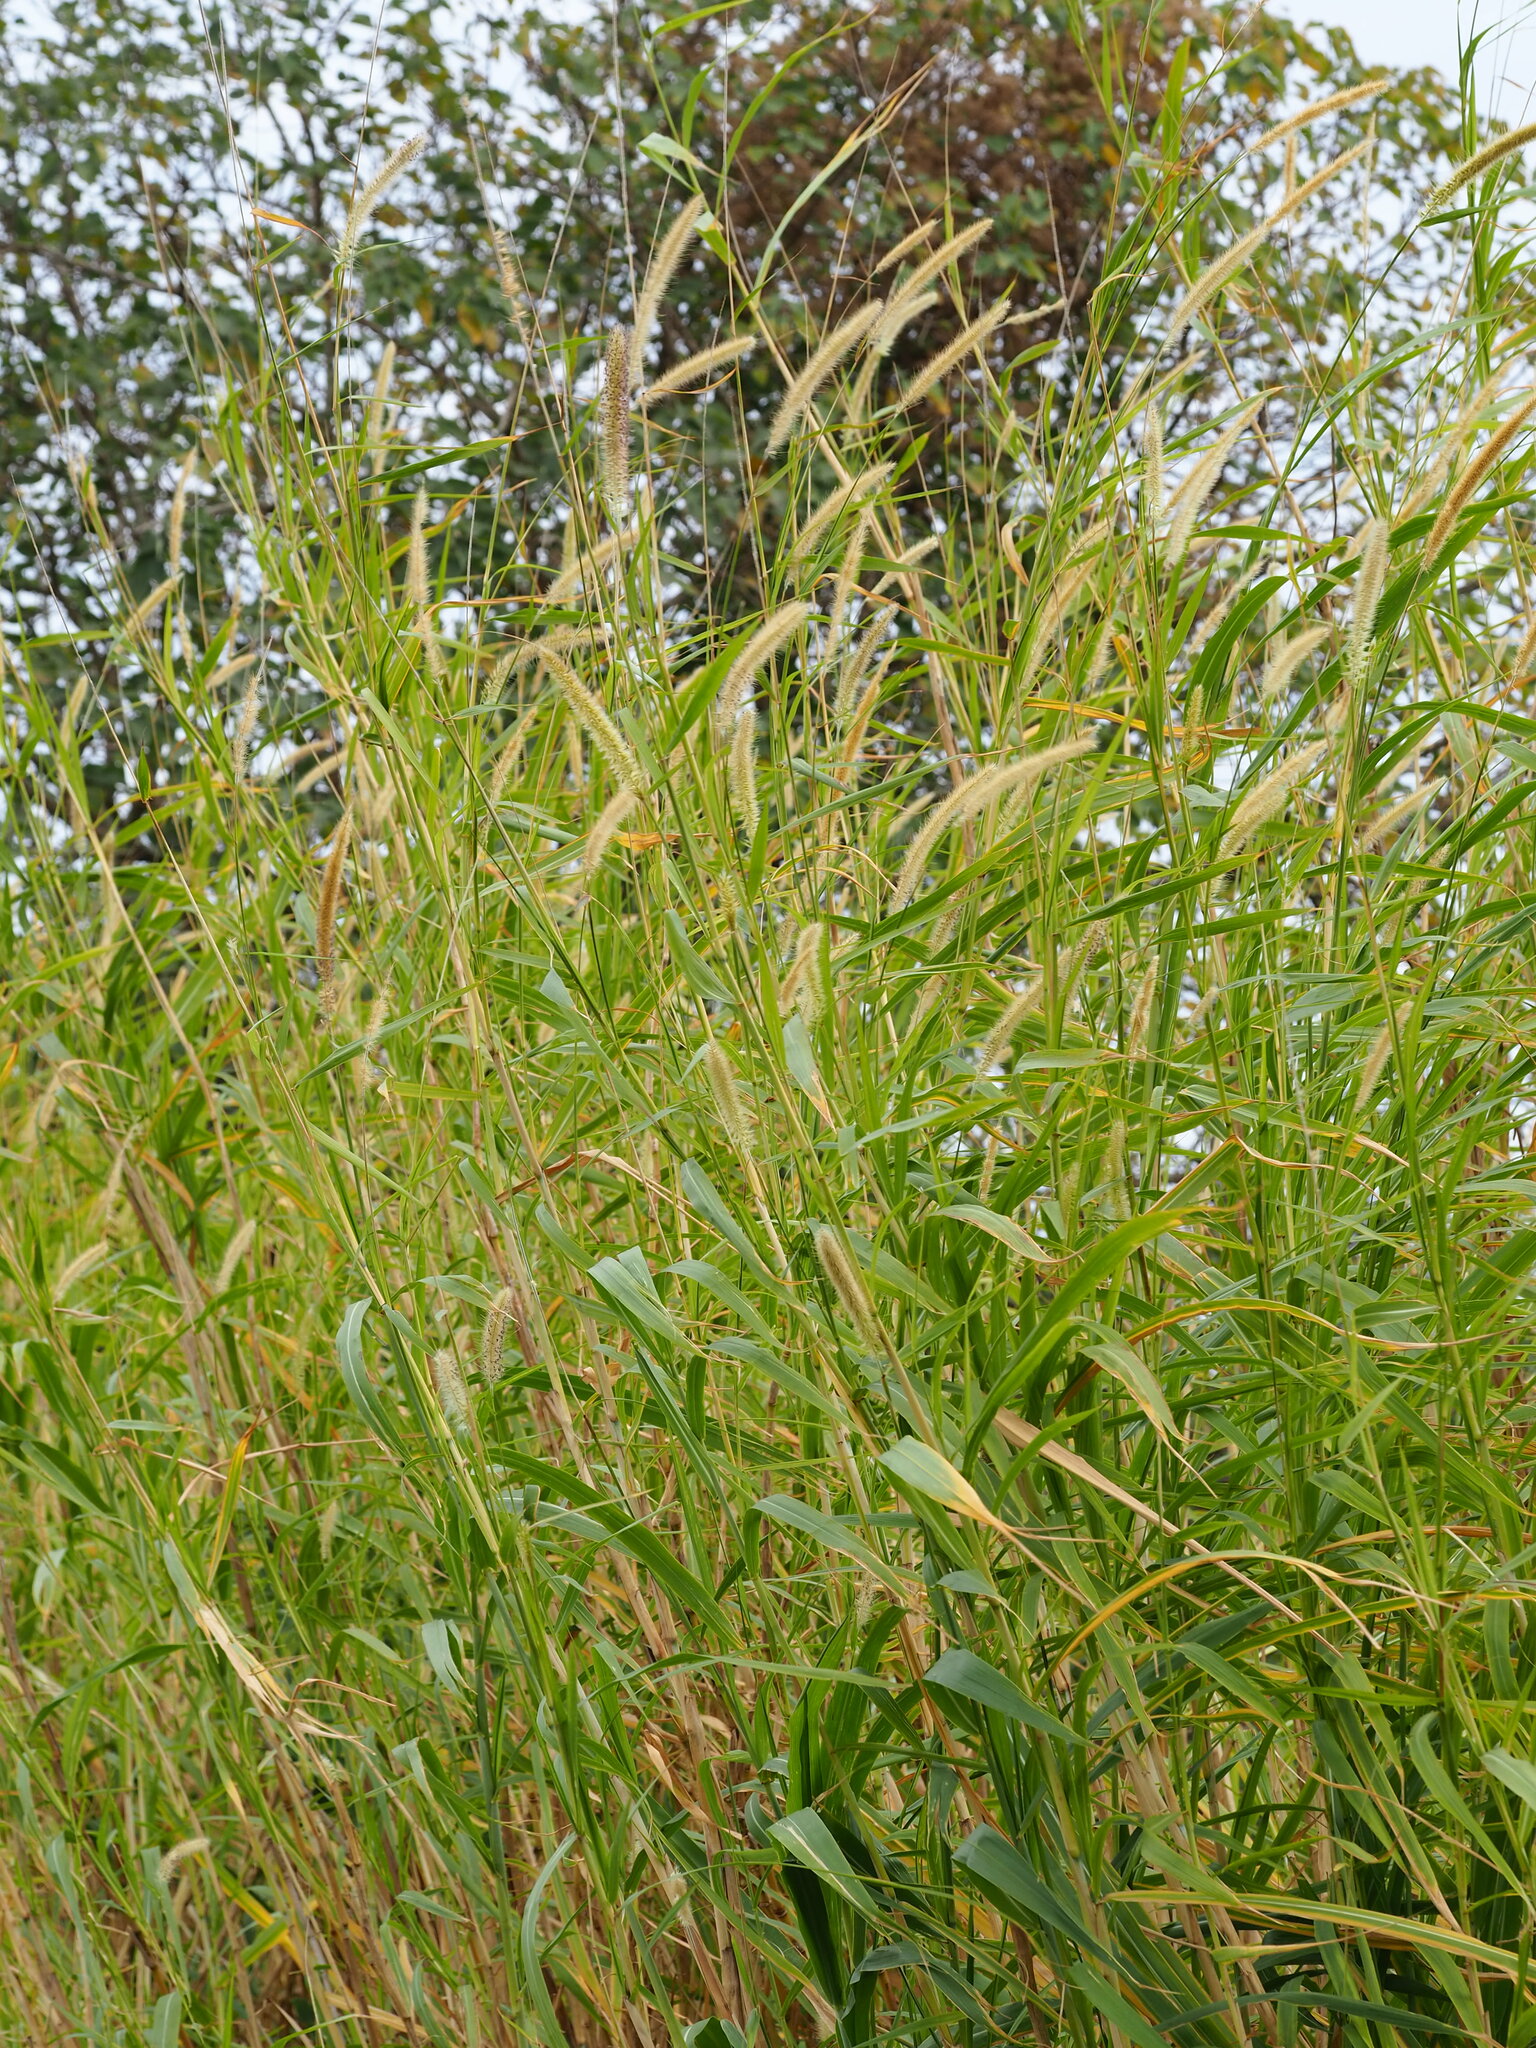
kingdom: Plantae
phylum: Tracheophyta
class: Liliopsida
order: Poales
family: Poaceae
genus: Cenchrus
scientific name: Cenchrus purpureus
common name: Elephant grass
